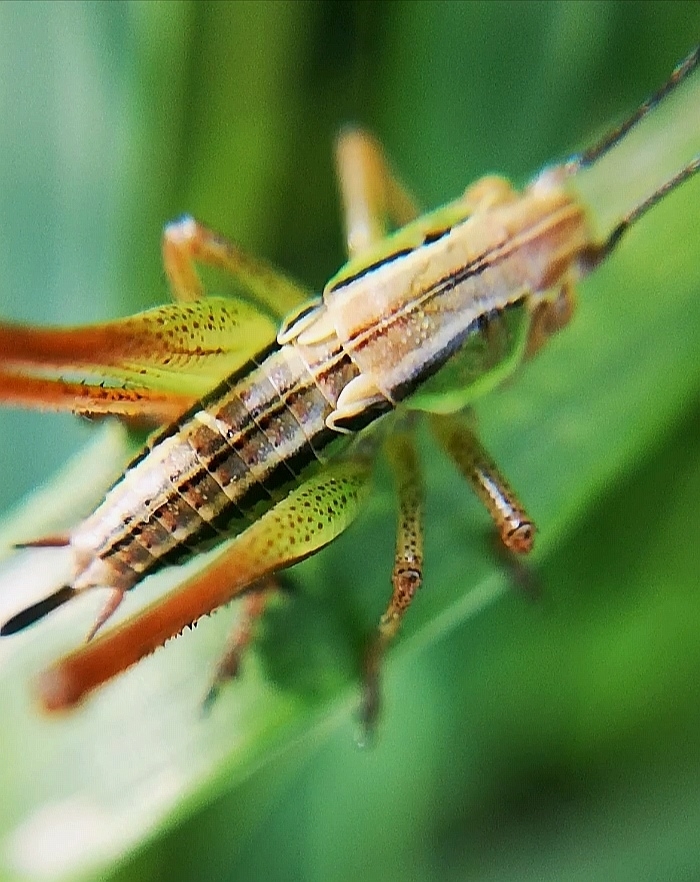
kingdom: Animalia
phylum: Arthropoda
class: Insecta
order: Orthoptera
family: Tettigoniidae
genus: Roeseliana
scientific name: Roeseliana roeselii
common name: Roesel's bush cricket
